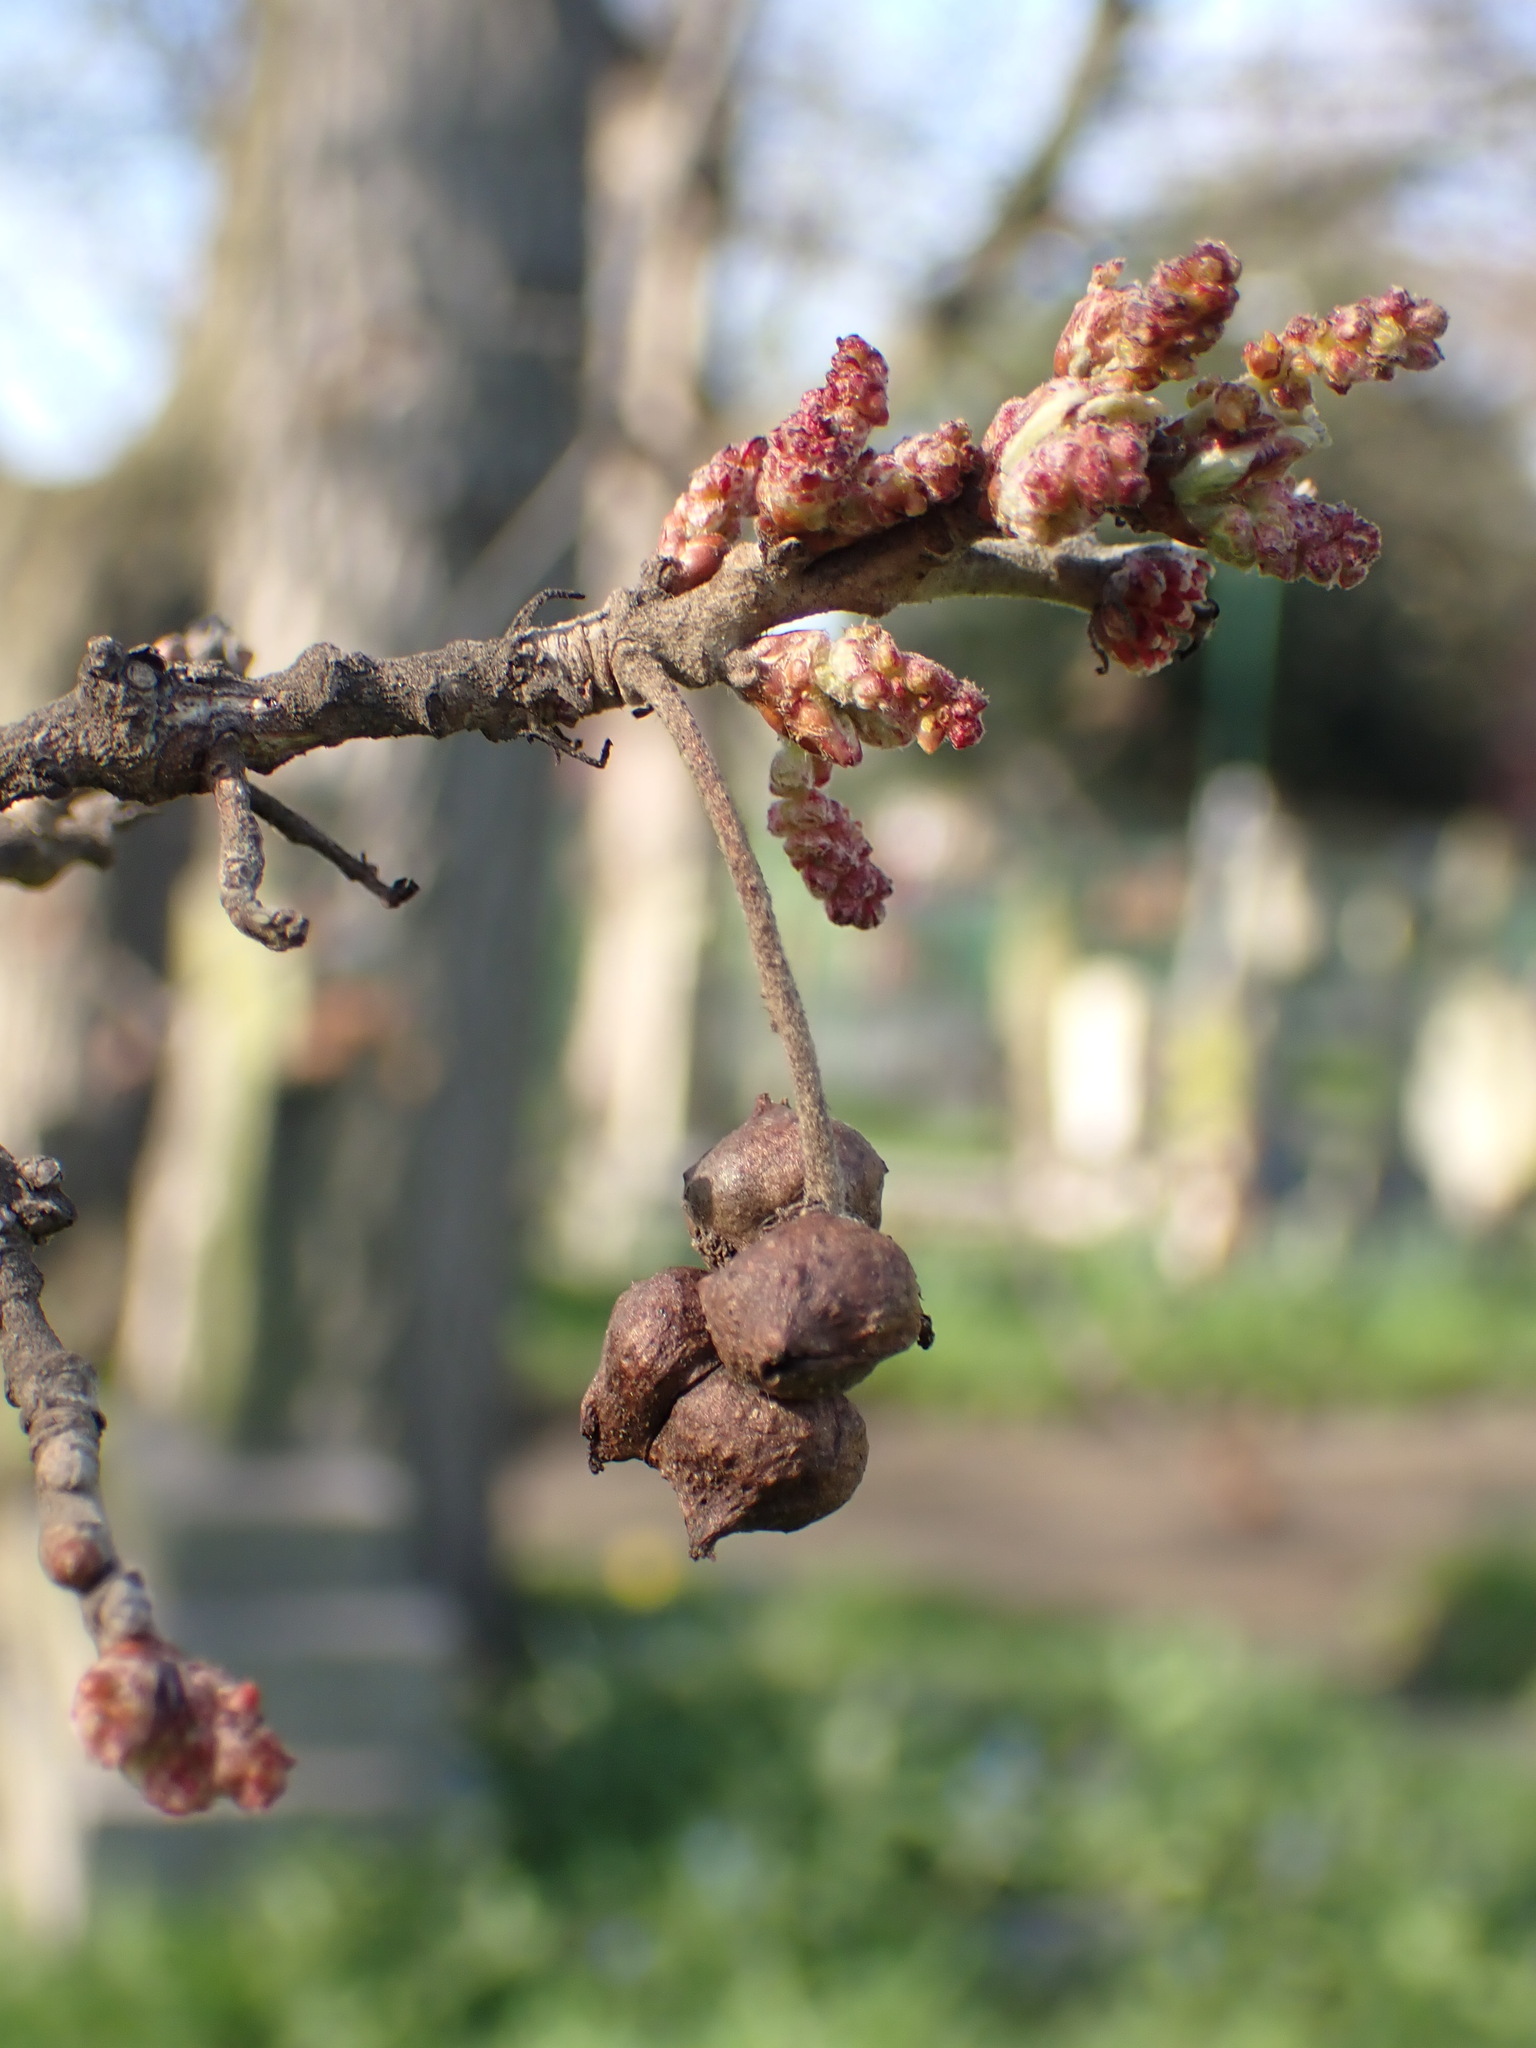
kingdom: Animalia
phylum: Arthropoda
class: Insecta
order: Hymenoptera
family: Cynipidae
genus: Andricus
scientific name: Andricus grossulariae
